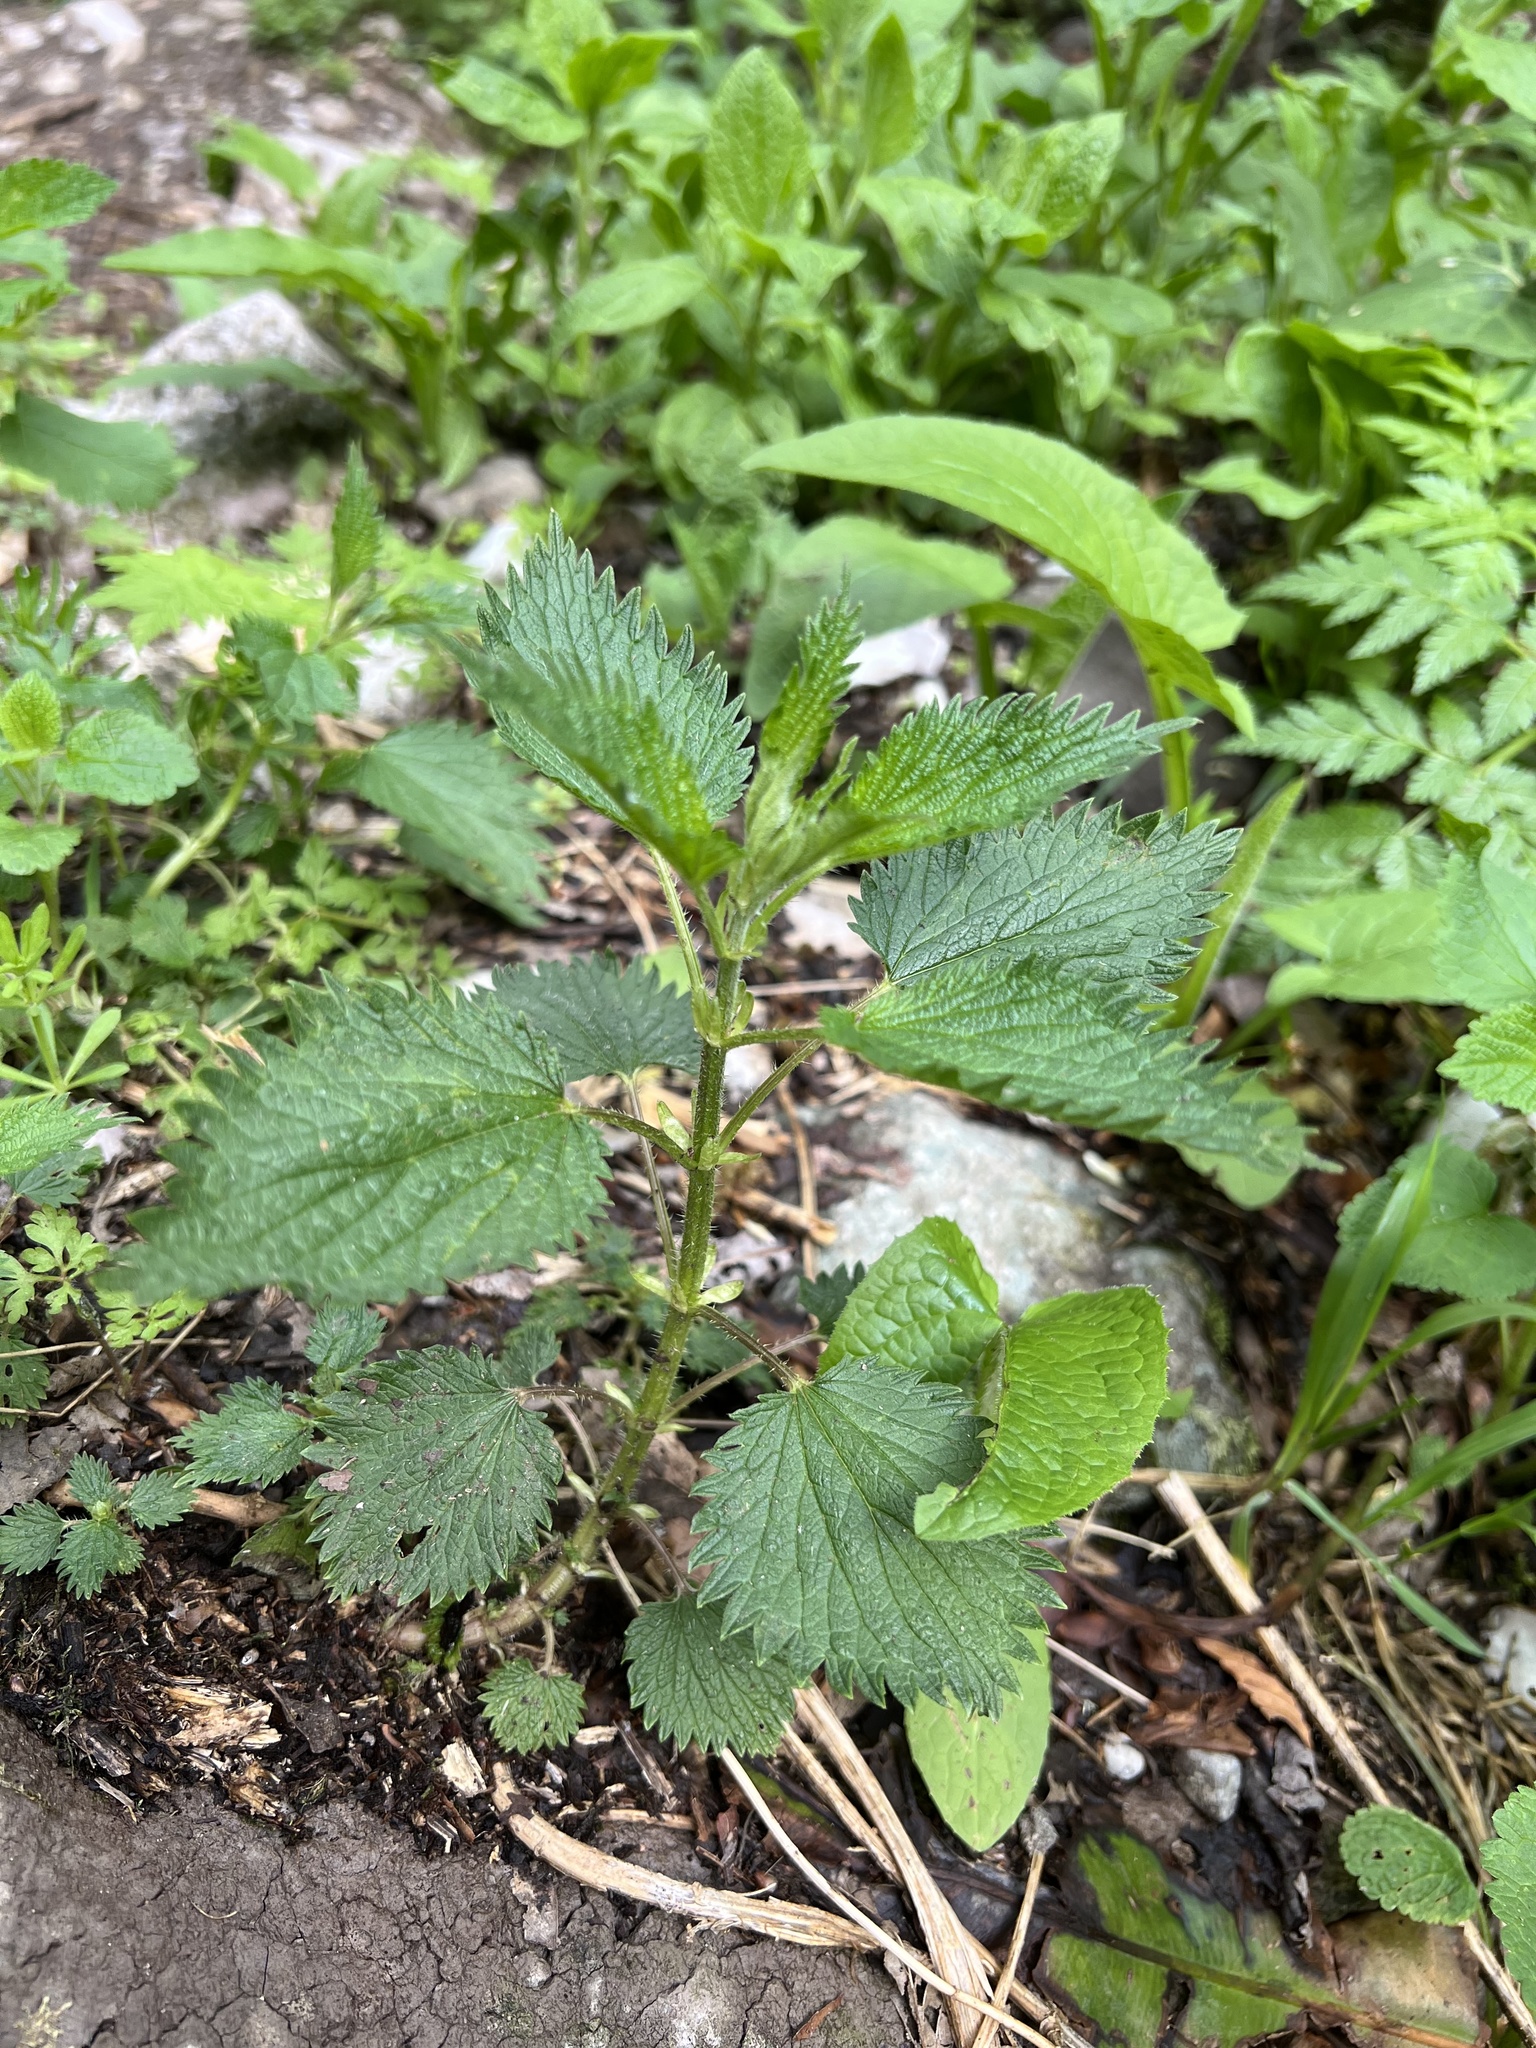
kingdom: Plantae
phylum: Tracheophyta
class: Magnoliopsida
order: Rosales
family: Urticaceae
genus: Urtica
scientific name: Urtica dioica
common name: Common nettle
